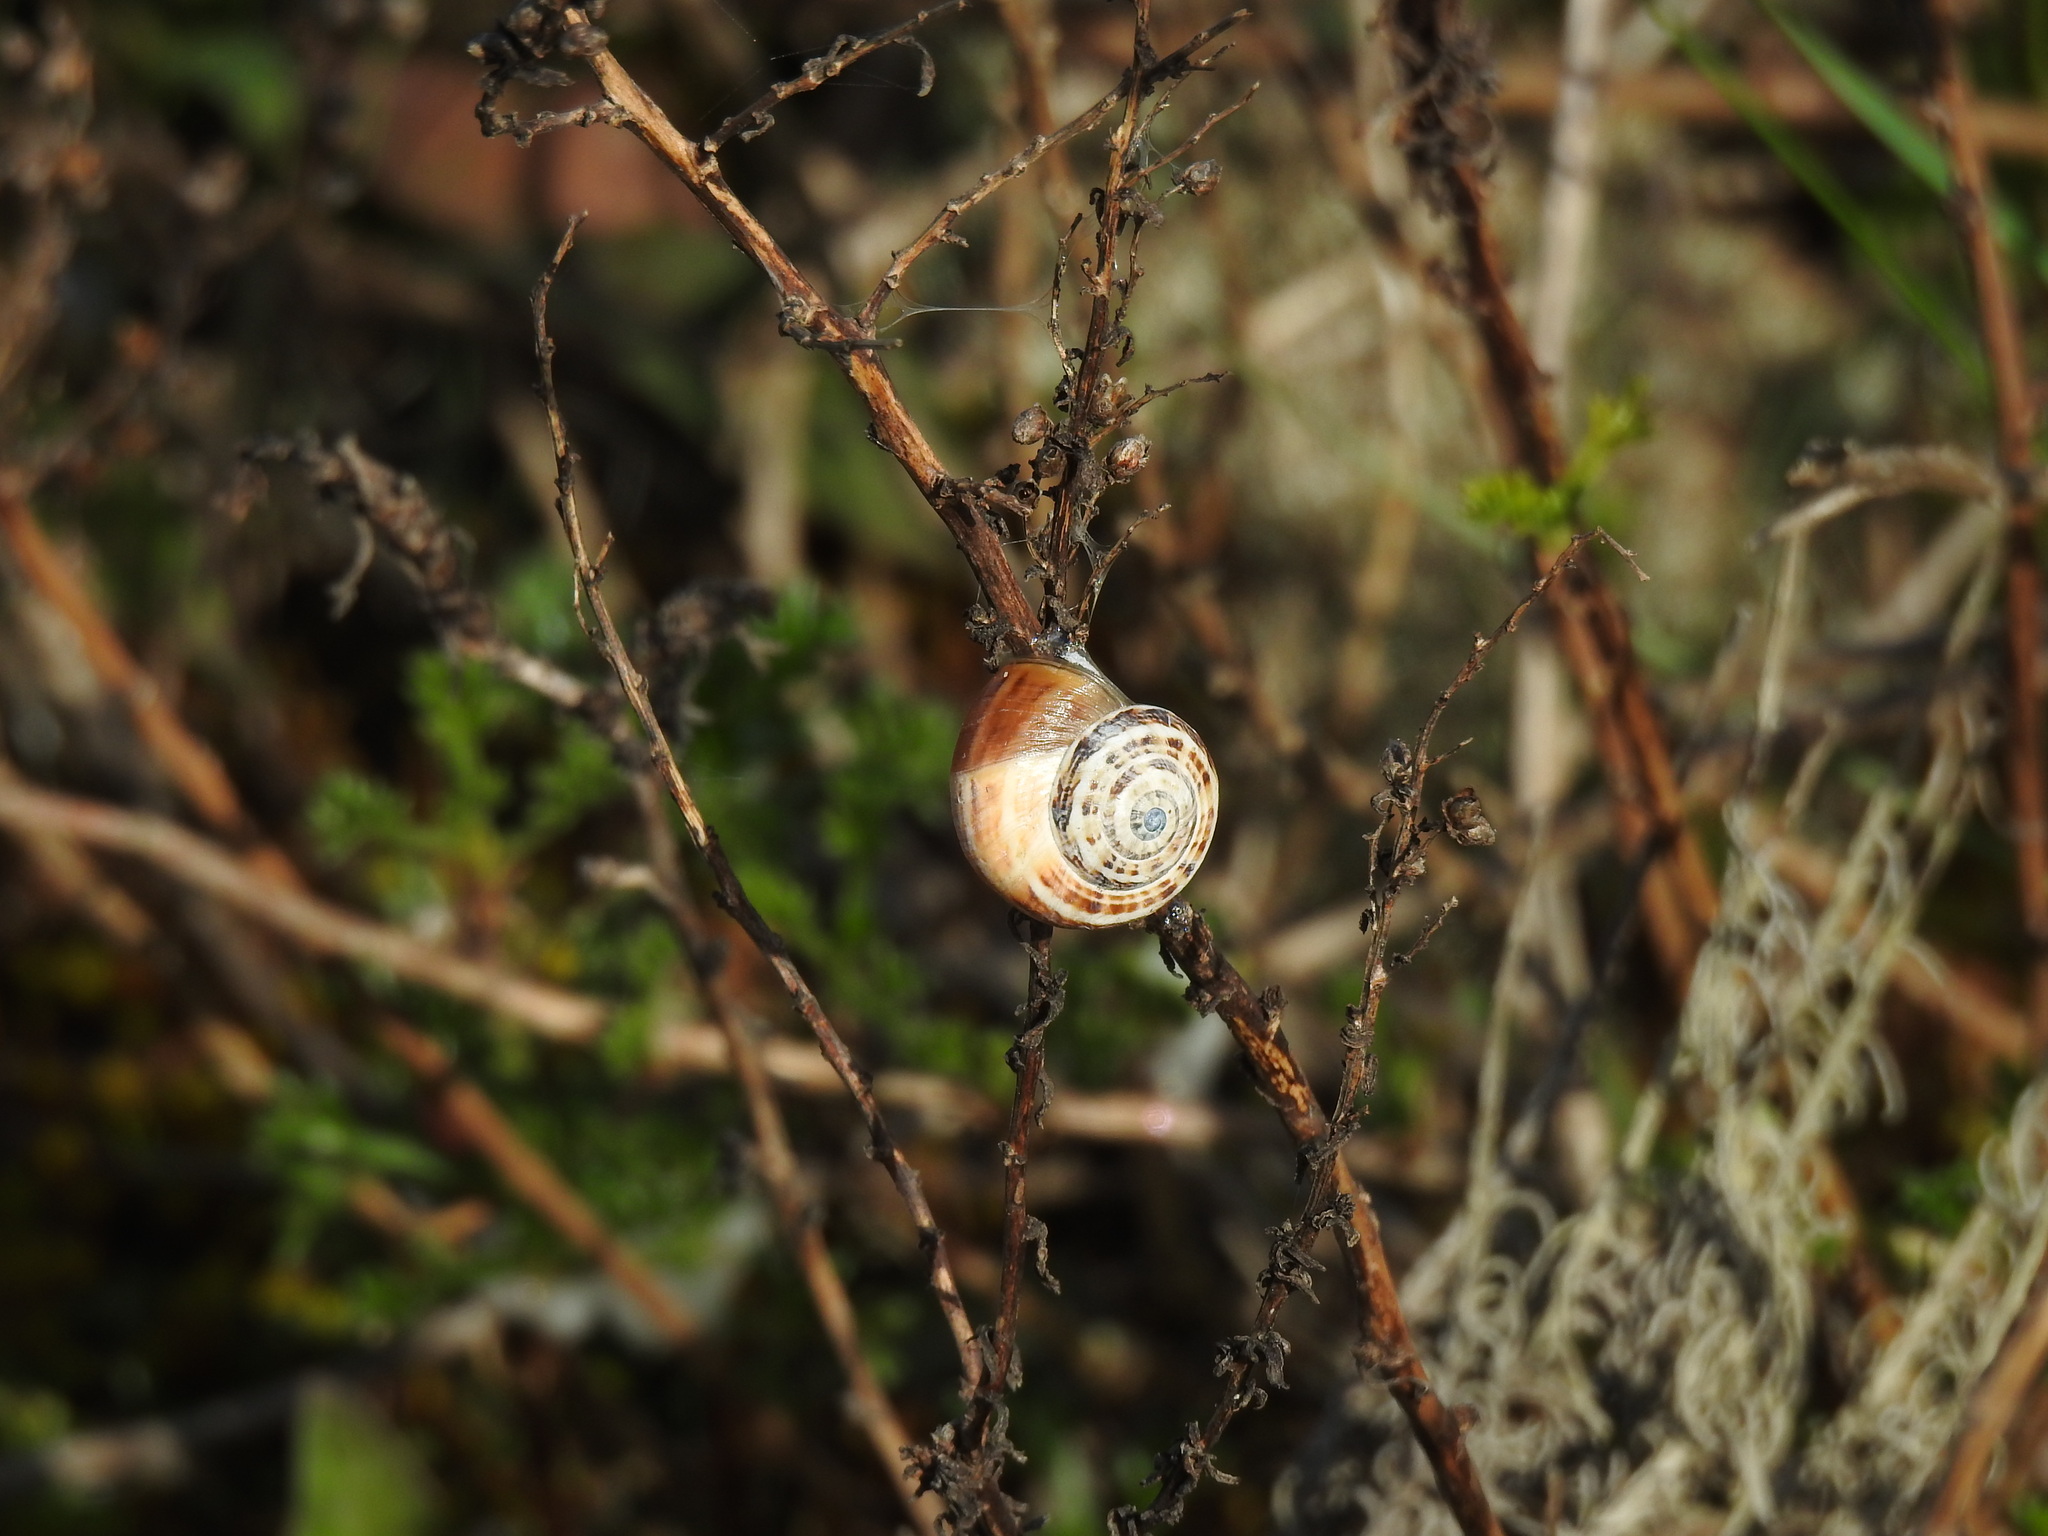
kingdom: Animalia
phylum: Mollusca
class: Gastropoda
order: Stylommatophora
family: Helicidae
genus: Theba
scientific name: Theba pisana
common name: White snail
